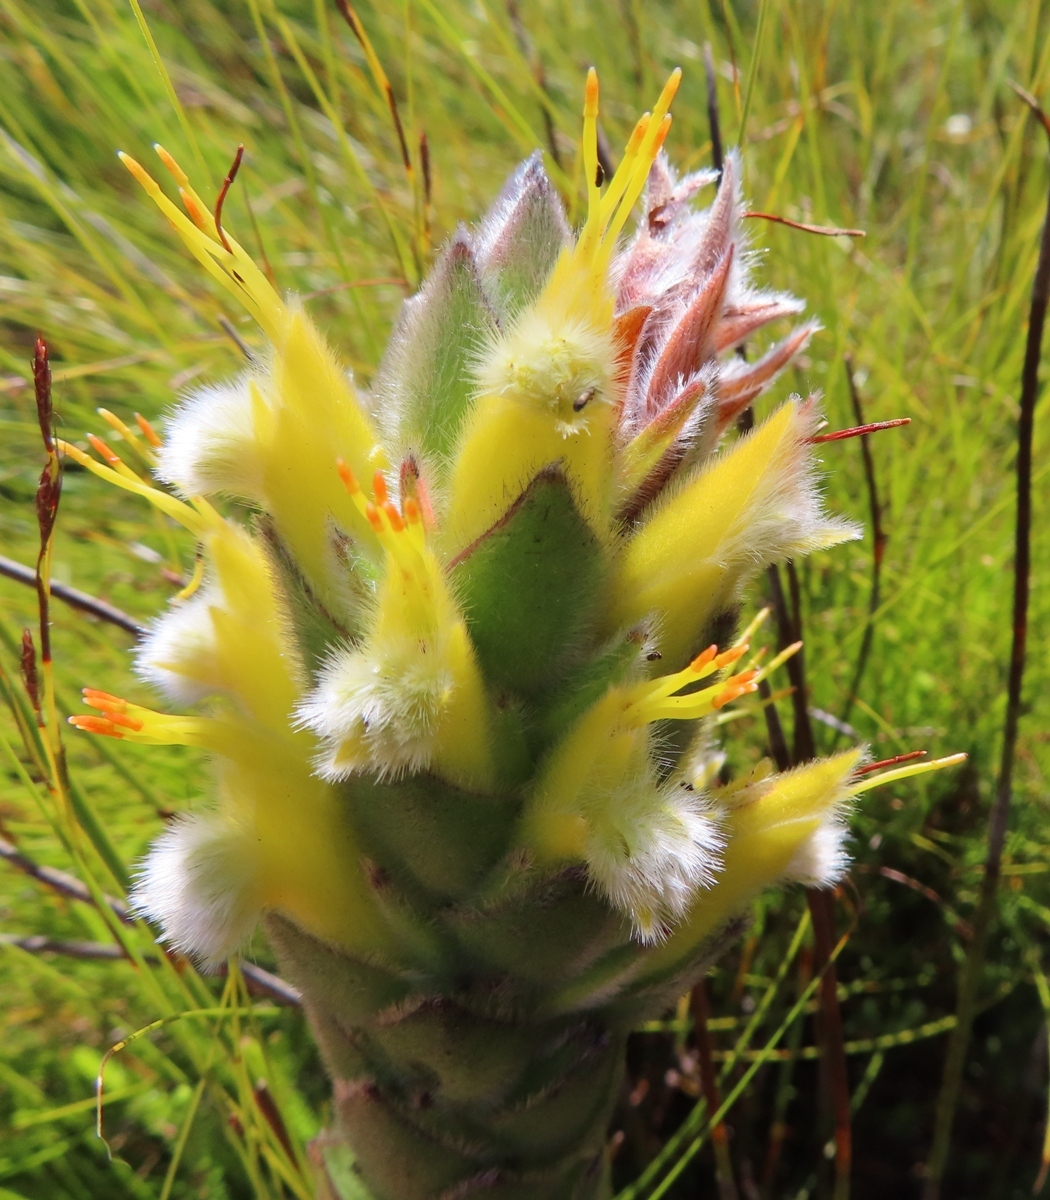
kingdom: Plantae
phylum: Tracheophyta
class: Magnoliopsida
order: Proteales
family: Proteaceae
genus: Mimetes
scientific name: Mimetes palustris
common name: Cryptic pagoda
